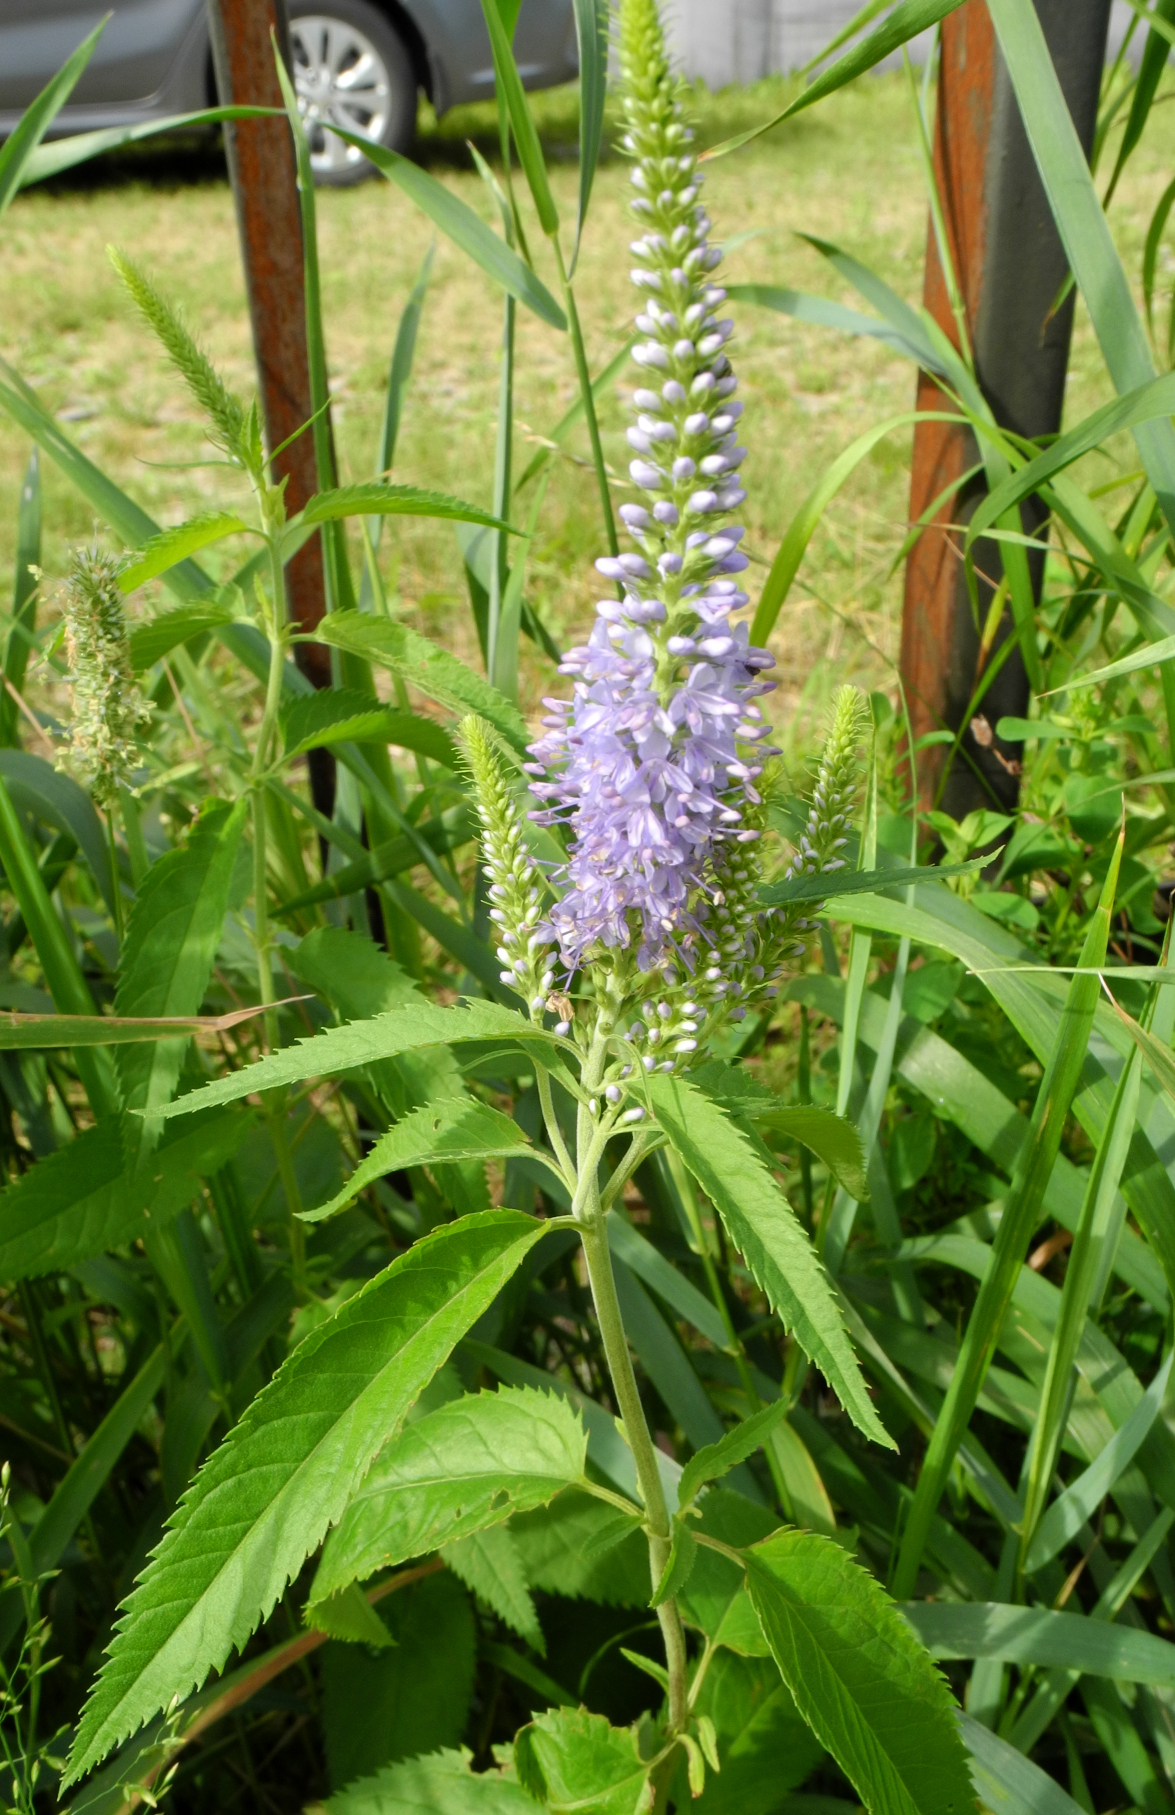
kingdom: Plantae
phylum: Tracheophyta
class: Magnoliopsida
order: Lamiales
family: Plantaginaceae
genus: Veronica
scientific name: Veronica longifolia
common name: Garden speedwell
